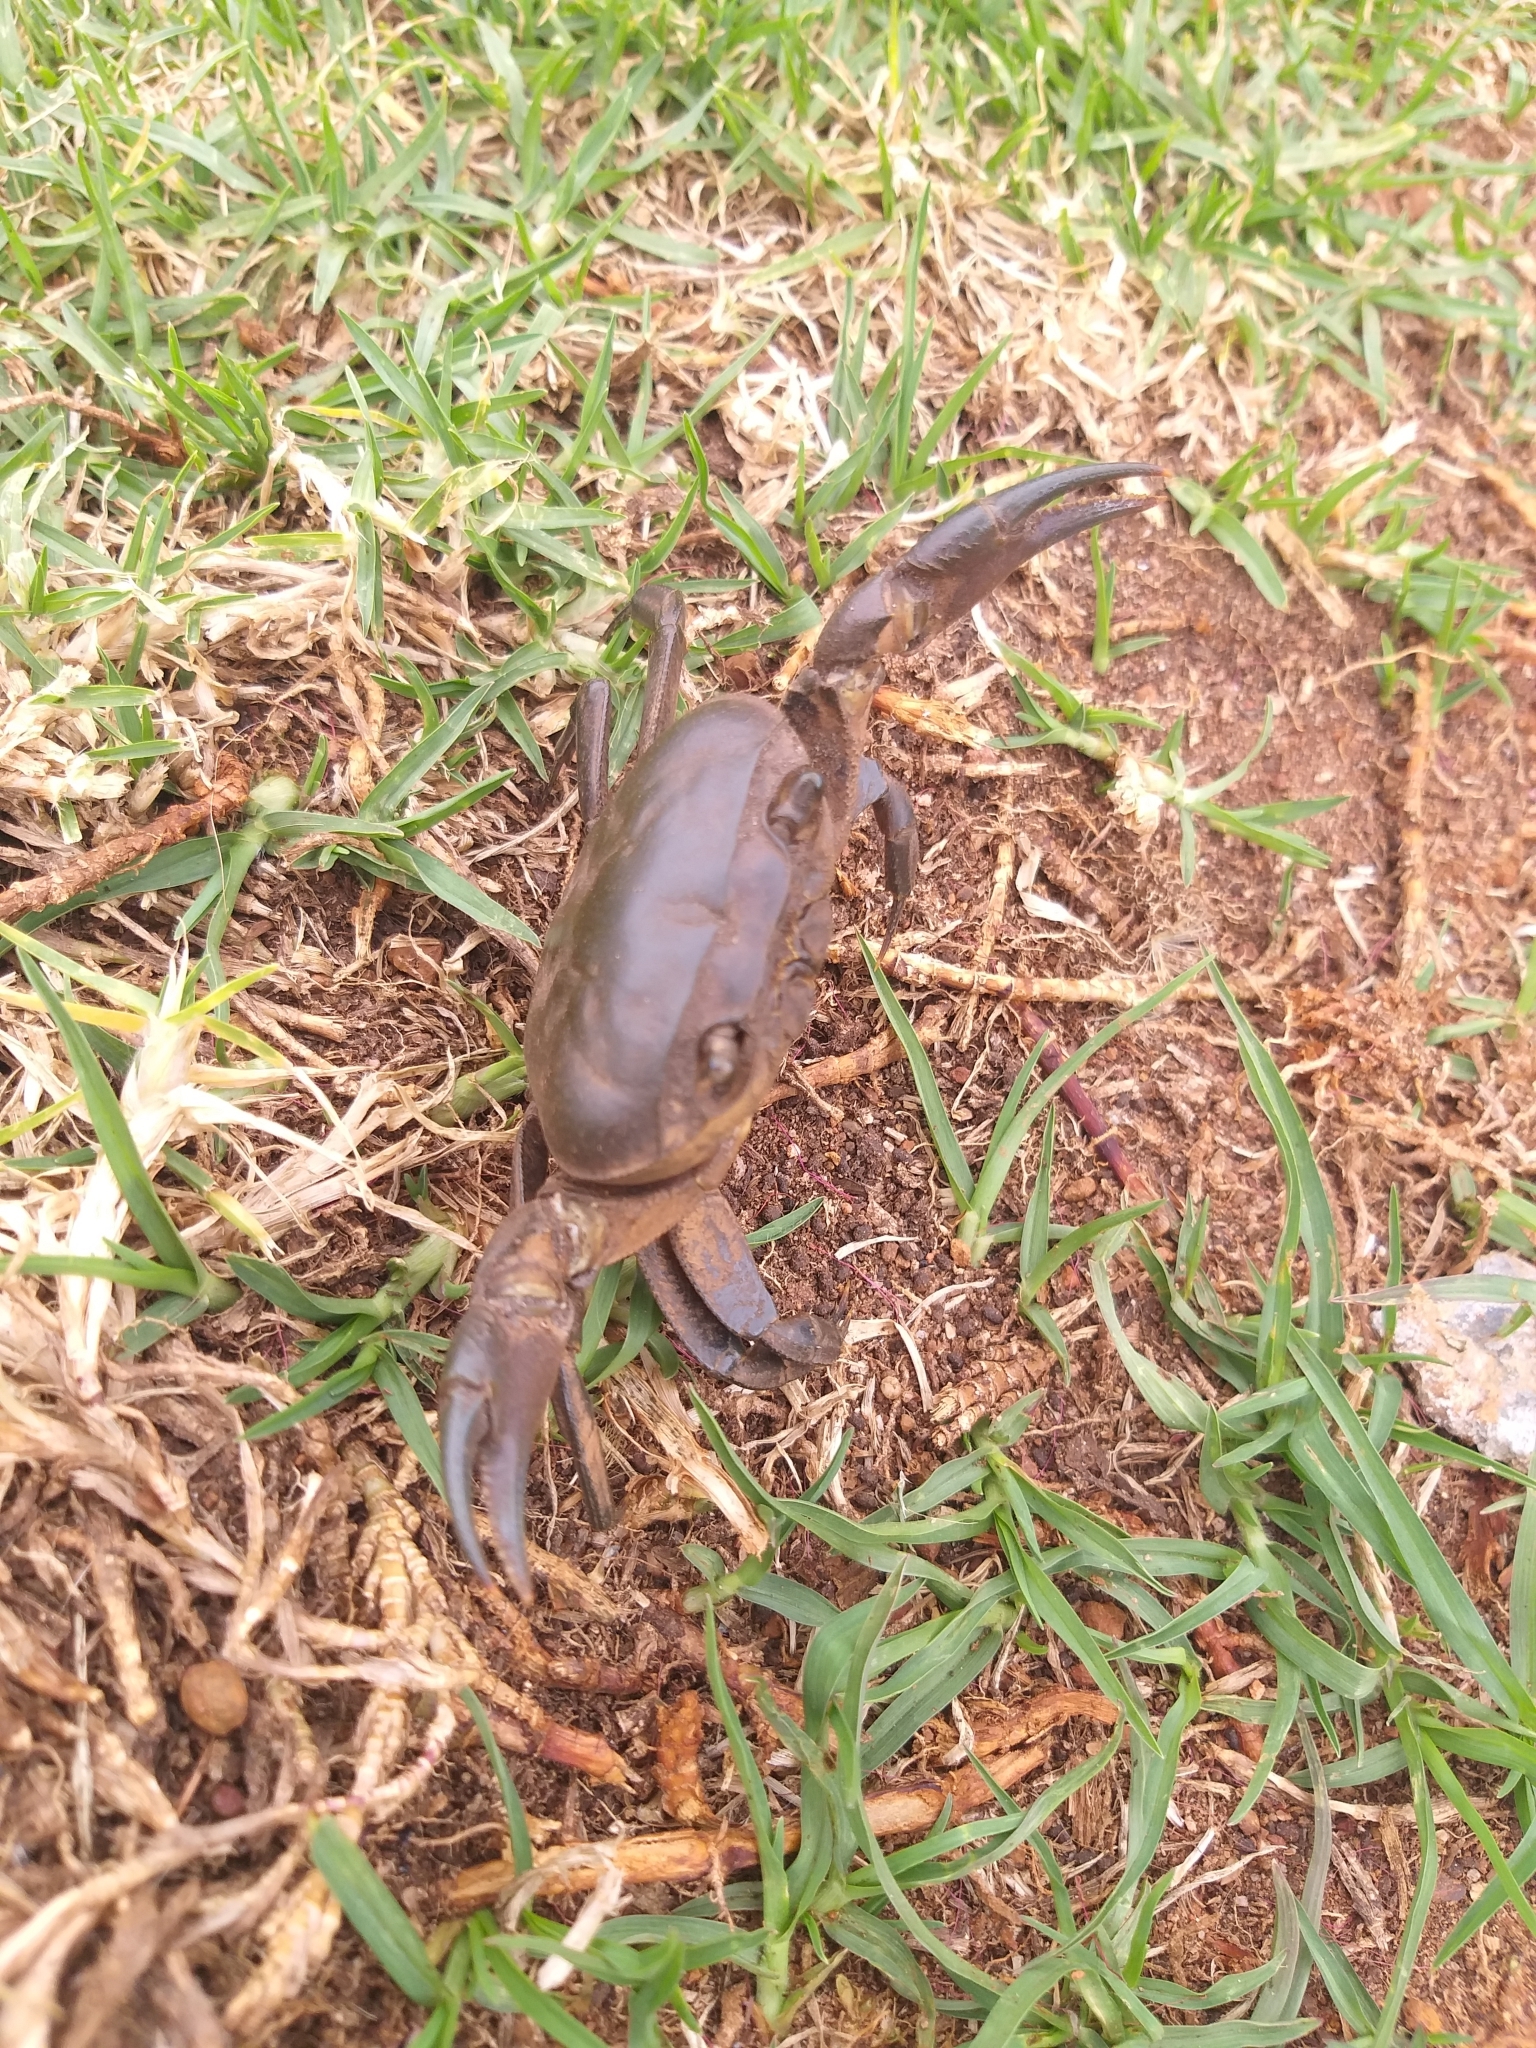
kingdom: Animalia
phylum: Arthropoda
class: Malacostraca
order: Decapoda
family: Potamonautidae
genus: Potamonautes
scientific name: Potamonautes perlatus
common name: Cape river crab
